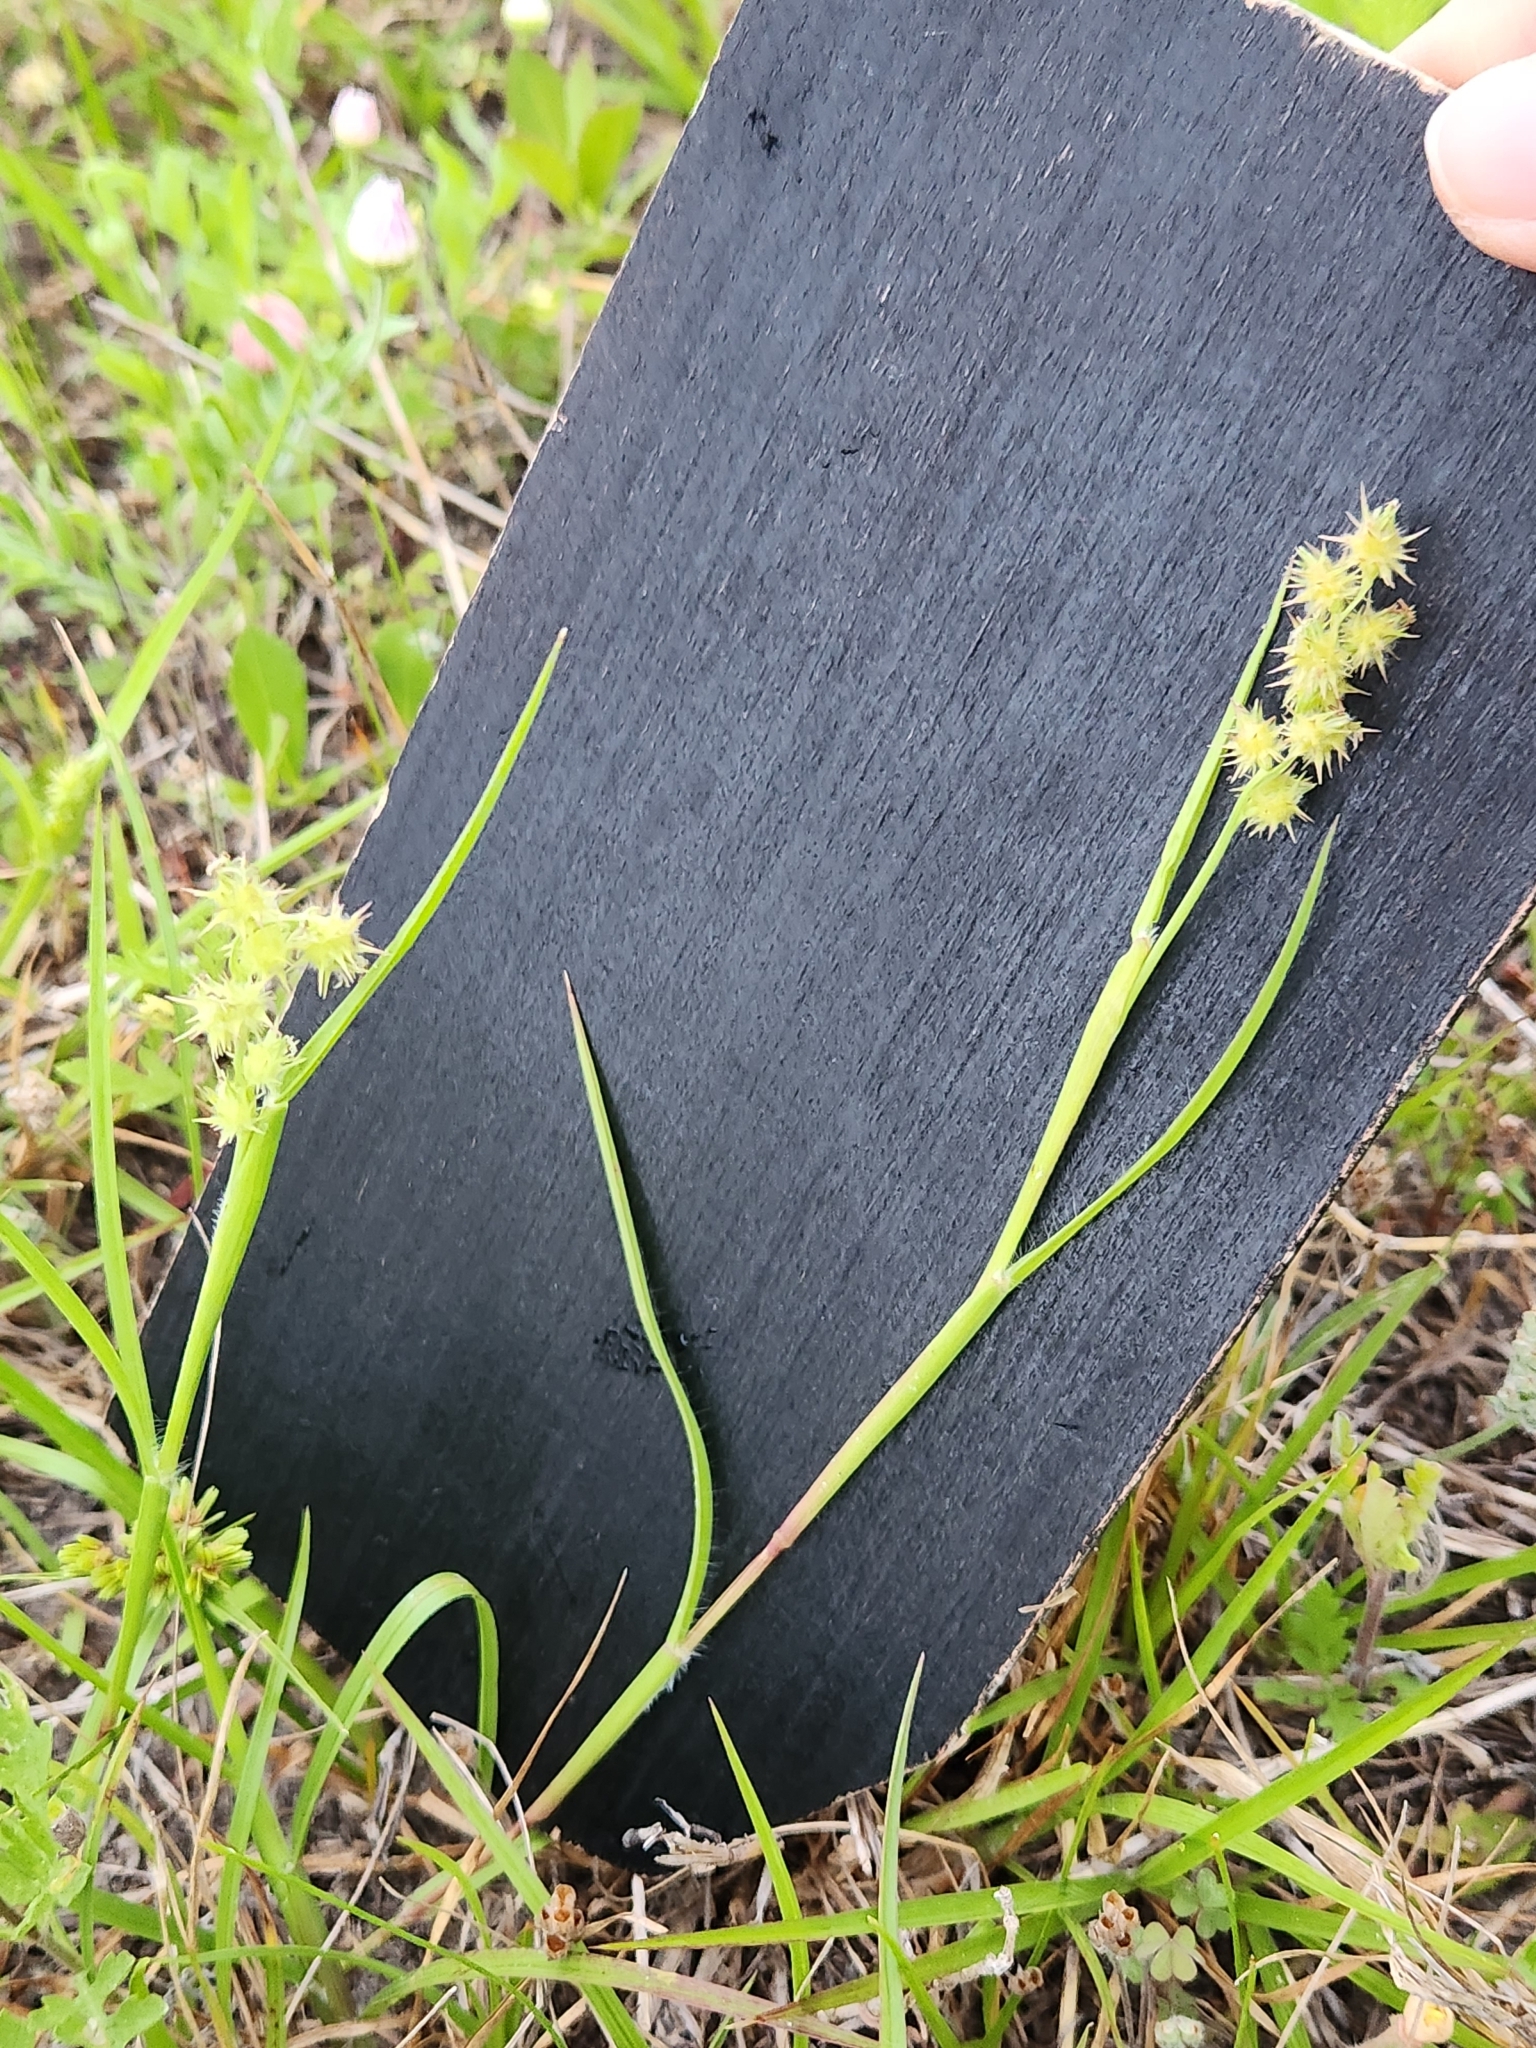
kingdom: Plantae
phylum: Tracheophyta
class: Liliopsida
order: Poales
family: Poaceae
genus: Cenchrus
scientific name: Cenchrus spinifex
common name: Coast sandbur
